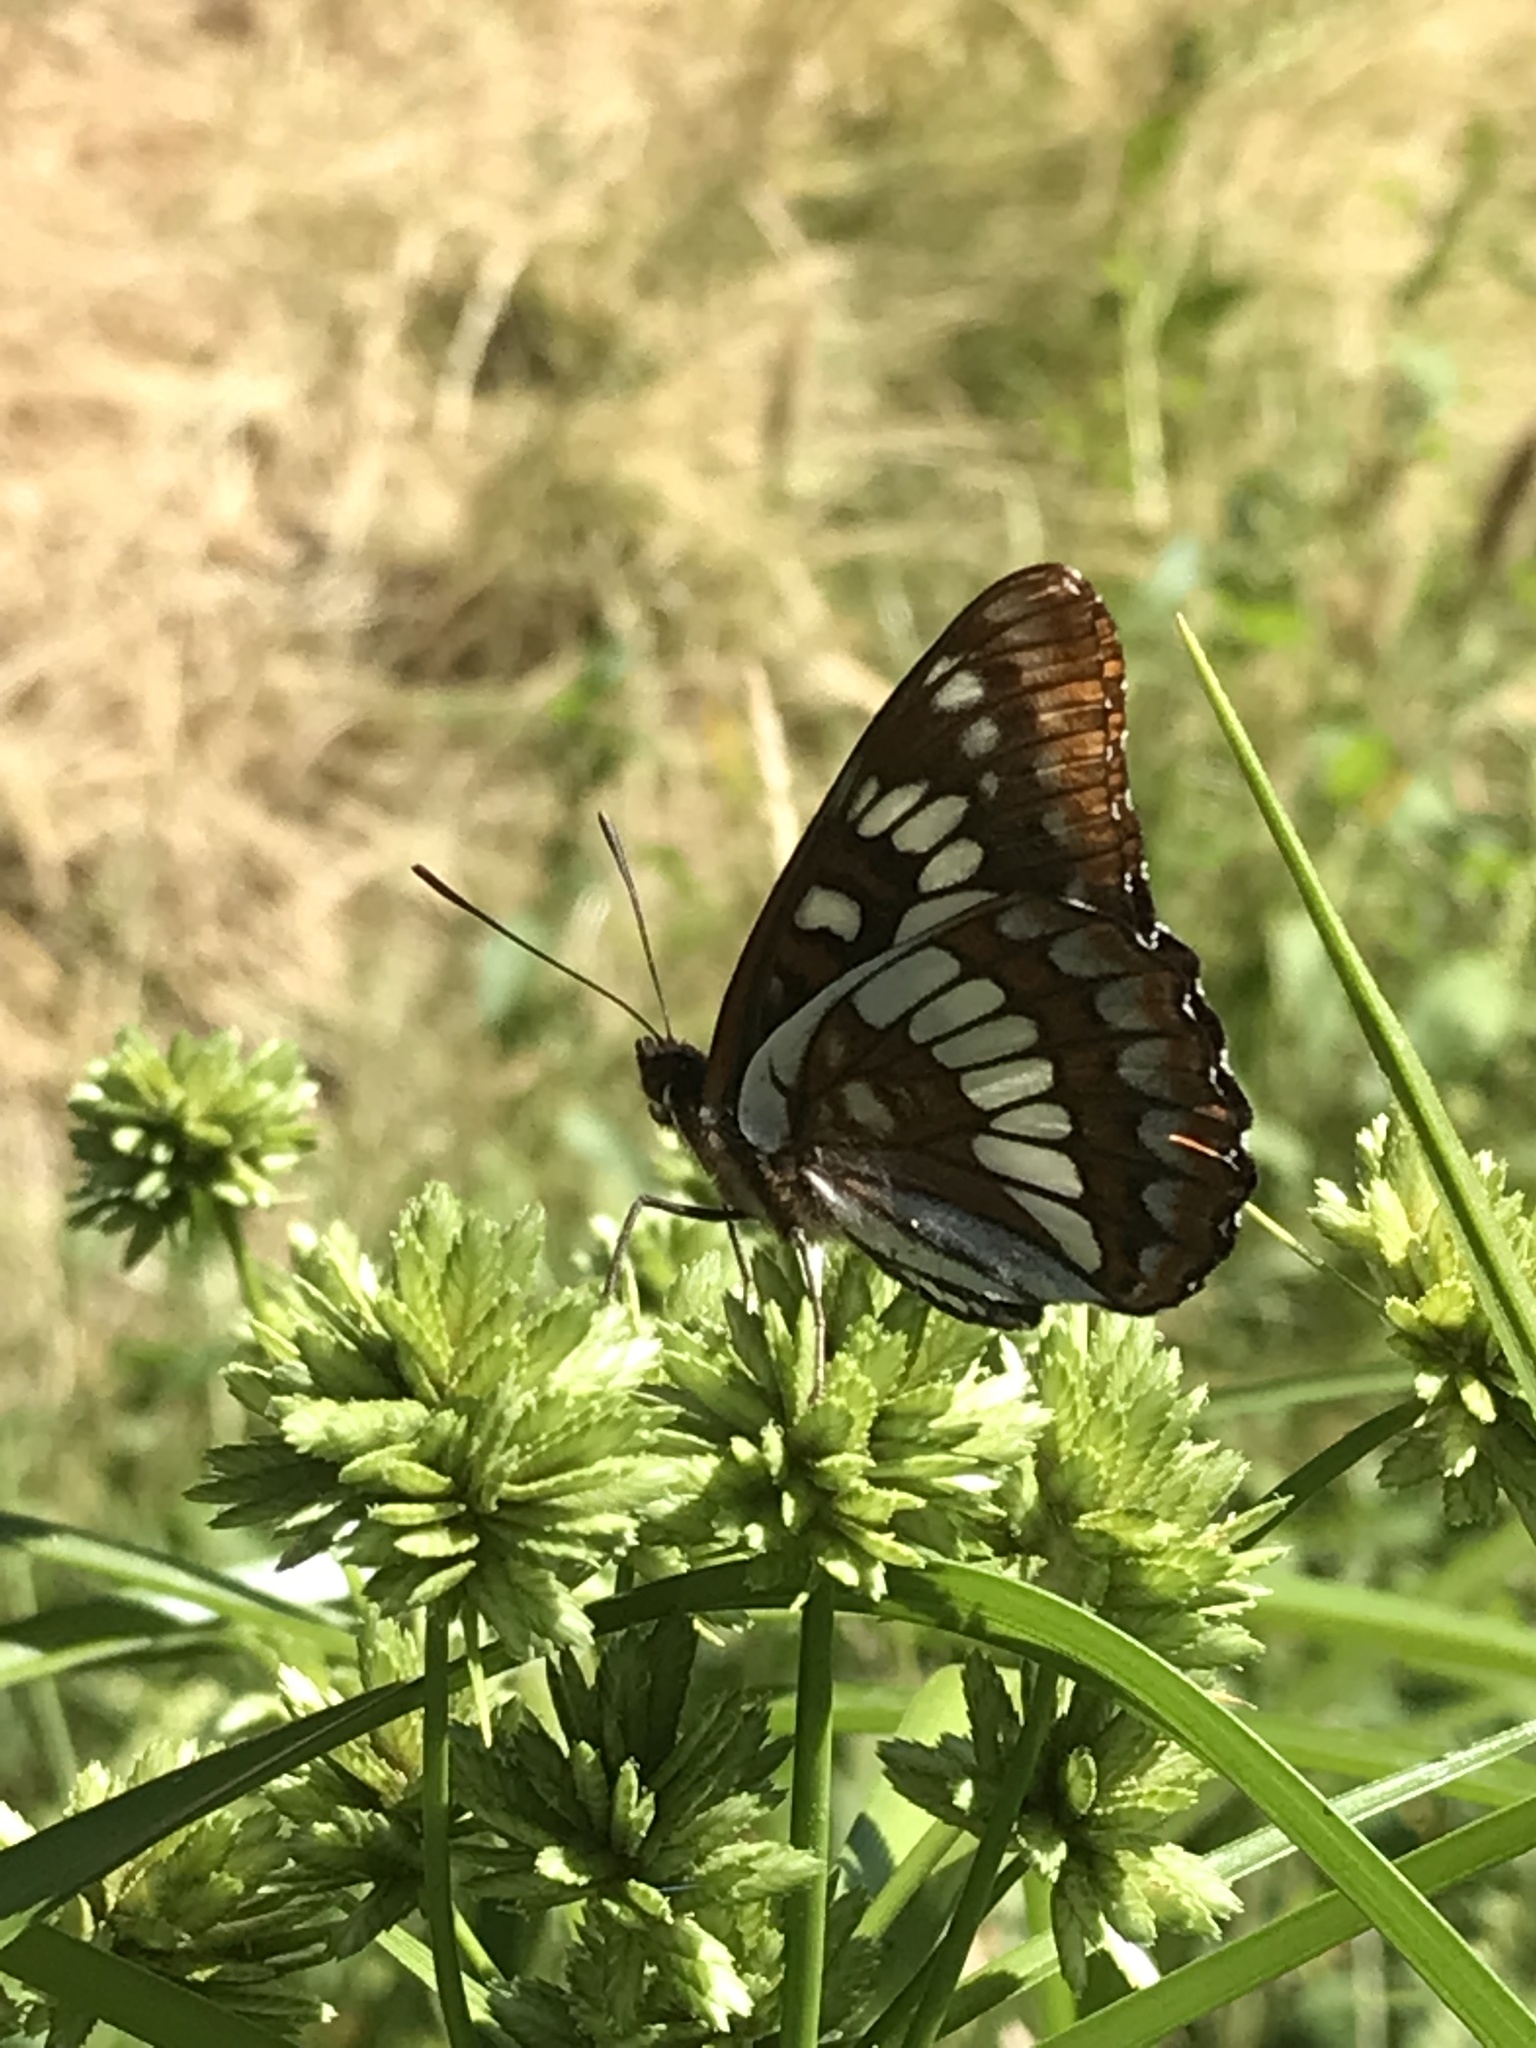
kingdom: Animalia
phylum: Arthropoda
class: Insecta
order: Lepidoptera
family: Nymphalidae
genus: Limenitis
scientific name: Limenitis lorquini
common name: Lorquin's admiral
